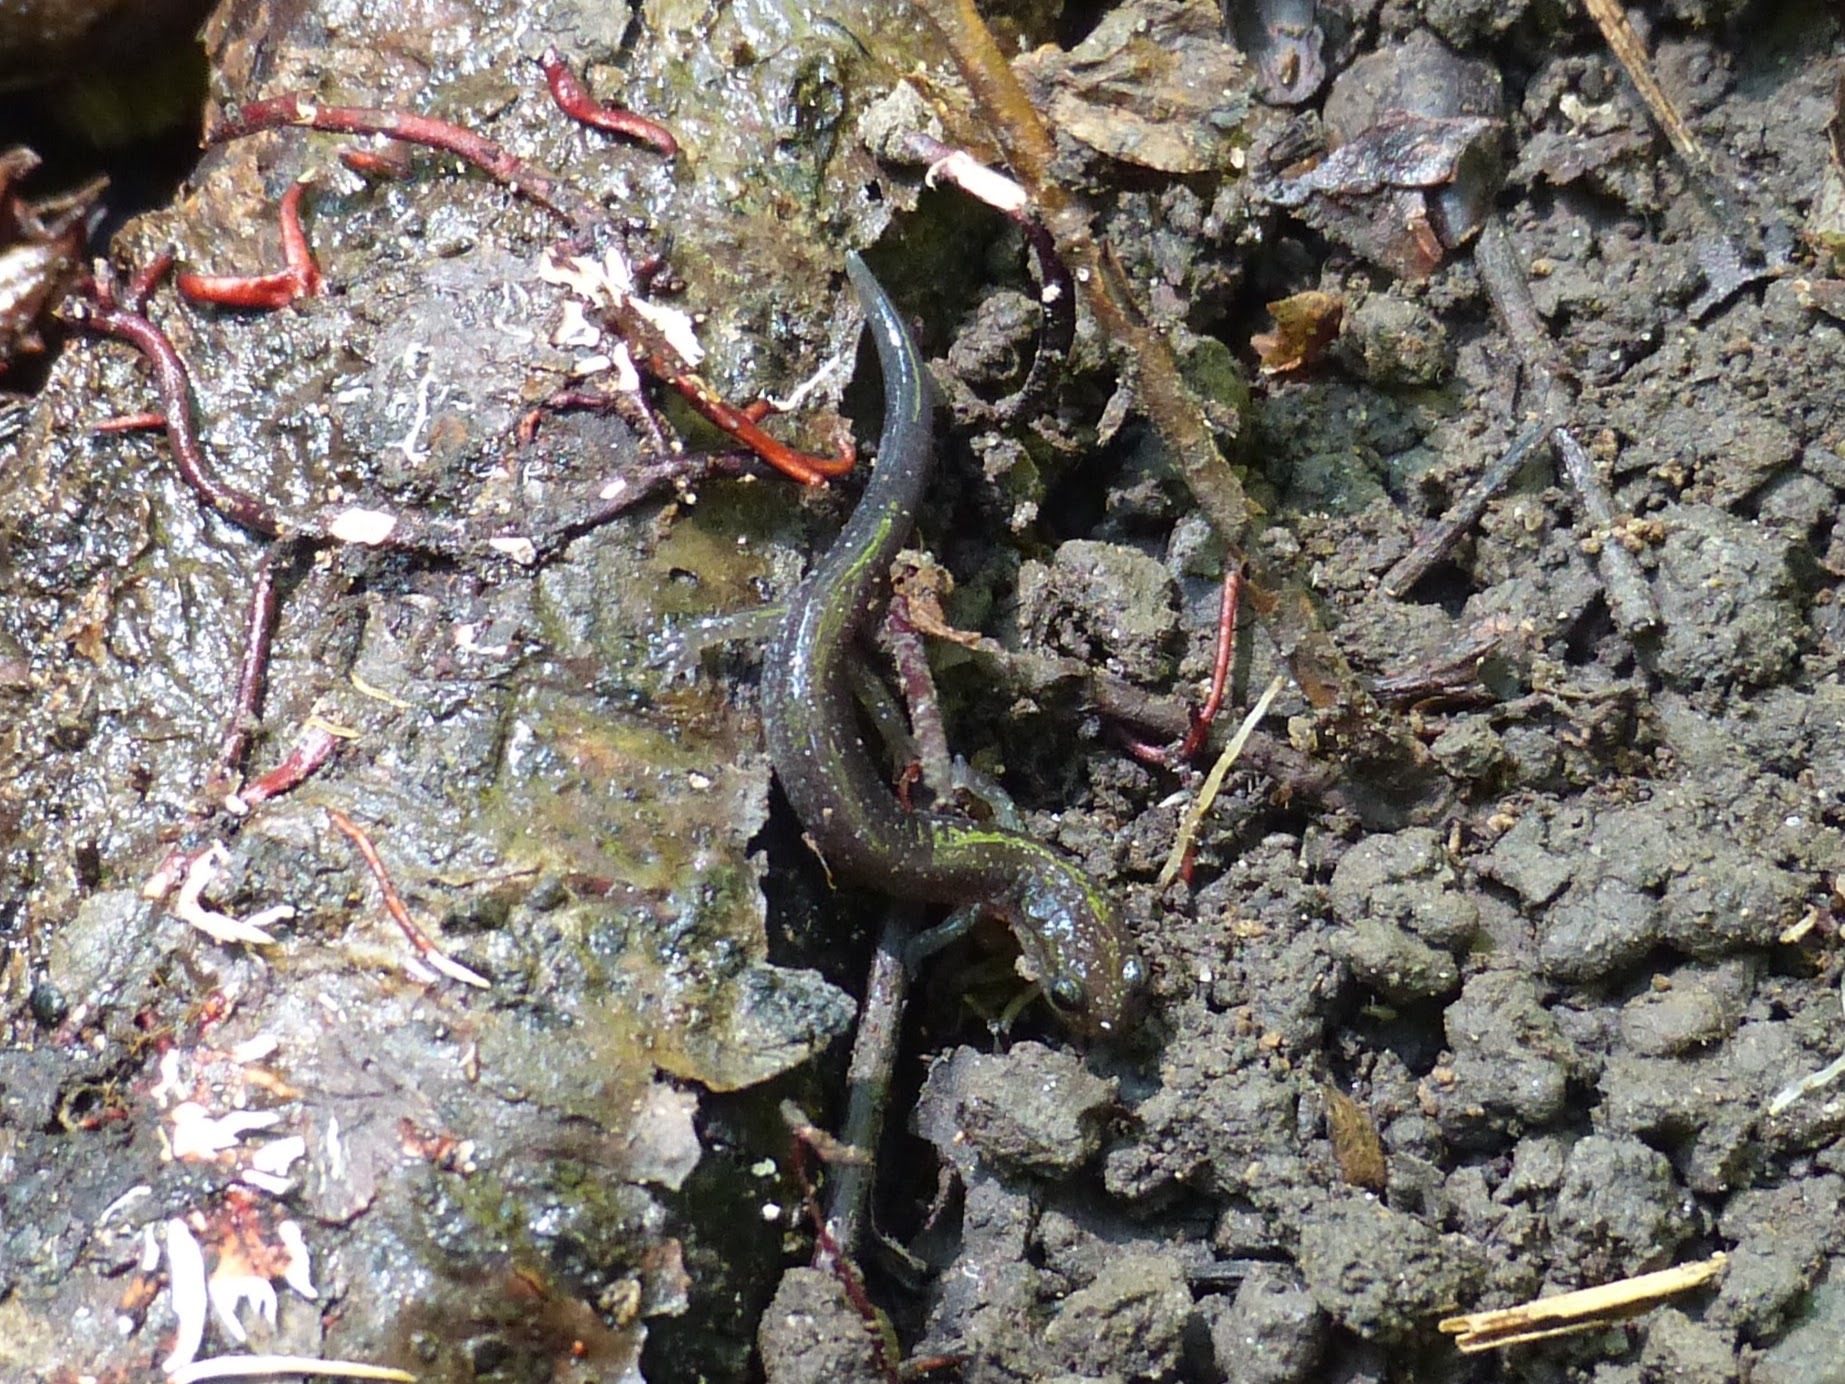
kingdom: Animalia
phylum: Chordata
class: Amphibia
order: Caudata
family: Plethodontidae
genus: Plethodon
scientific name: Plethodon cinereus
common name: Redback salamander
